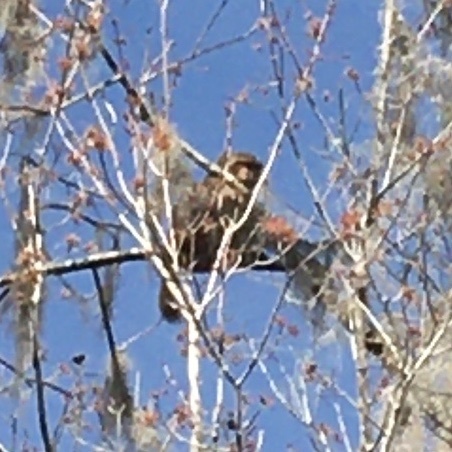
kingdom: Animalia
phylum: Chordata
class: Mammalia
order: Primates
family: Cercopithecidae
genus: Macaca
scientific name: Macaca mulatta
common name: Rhesus monkey
